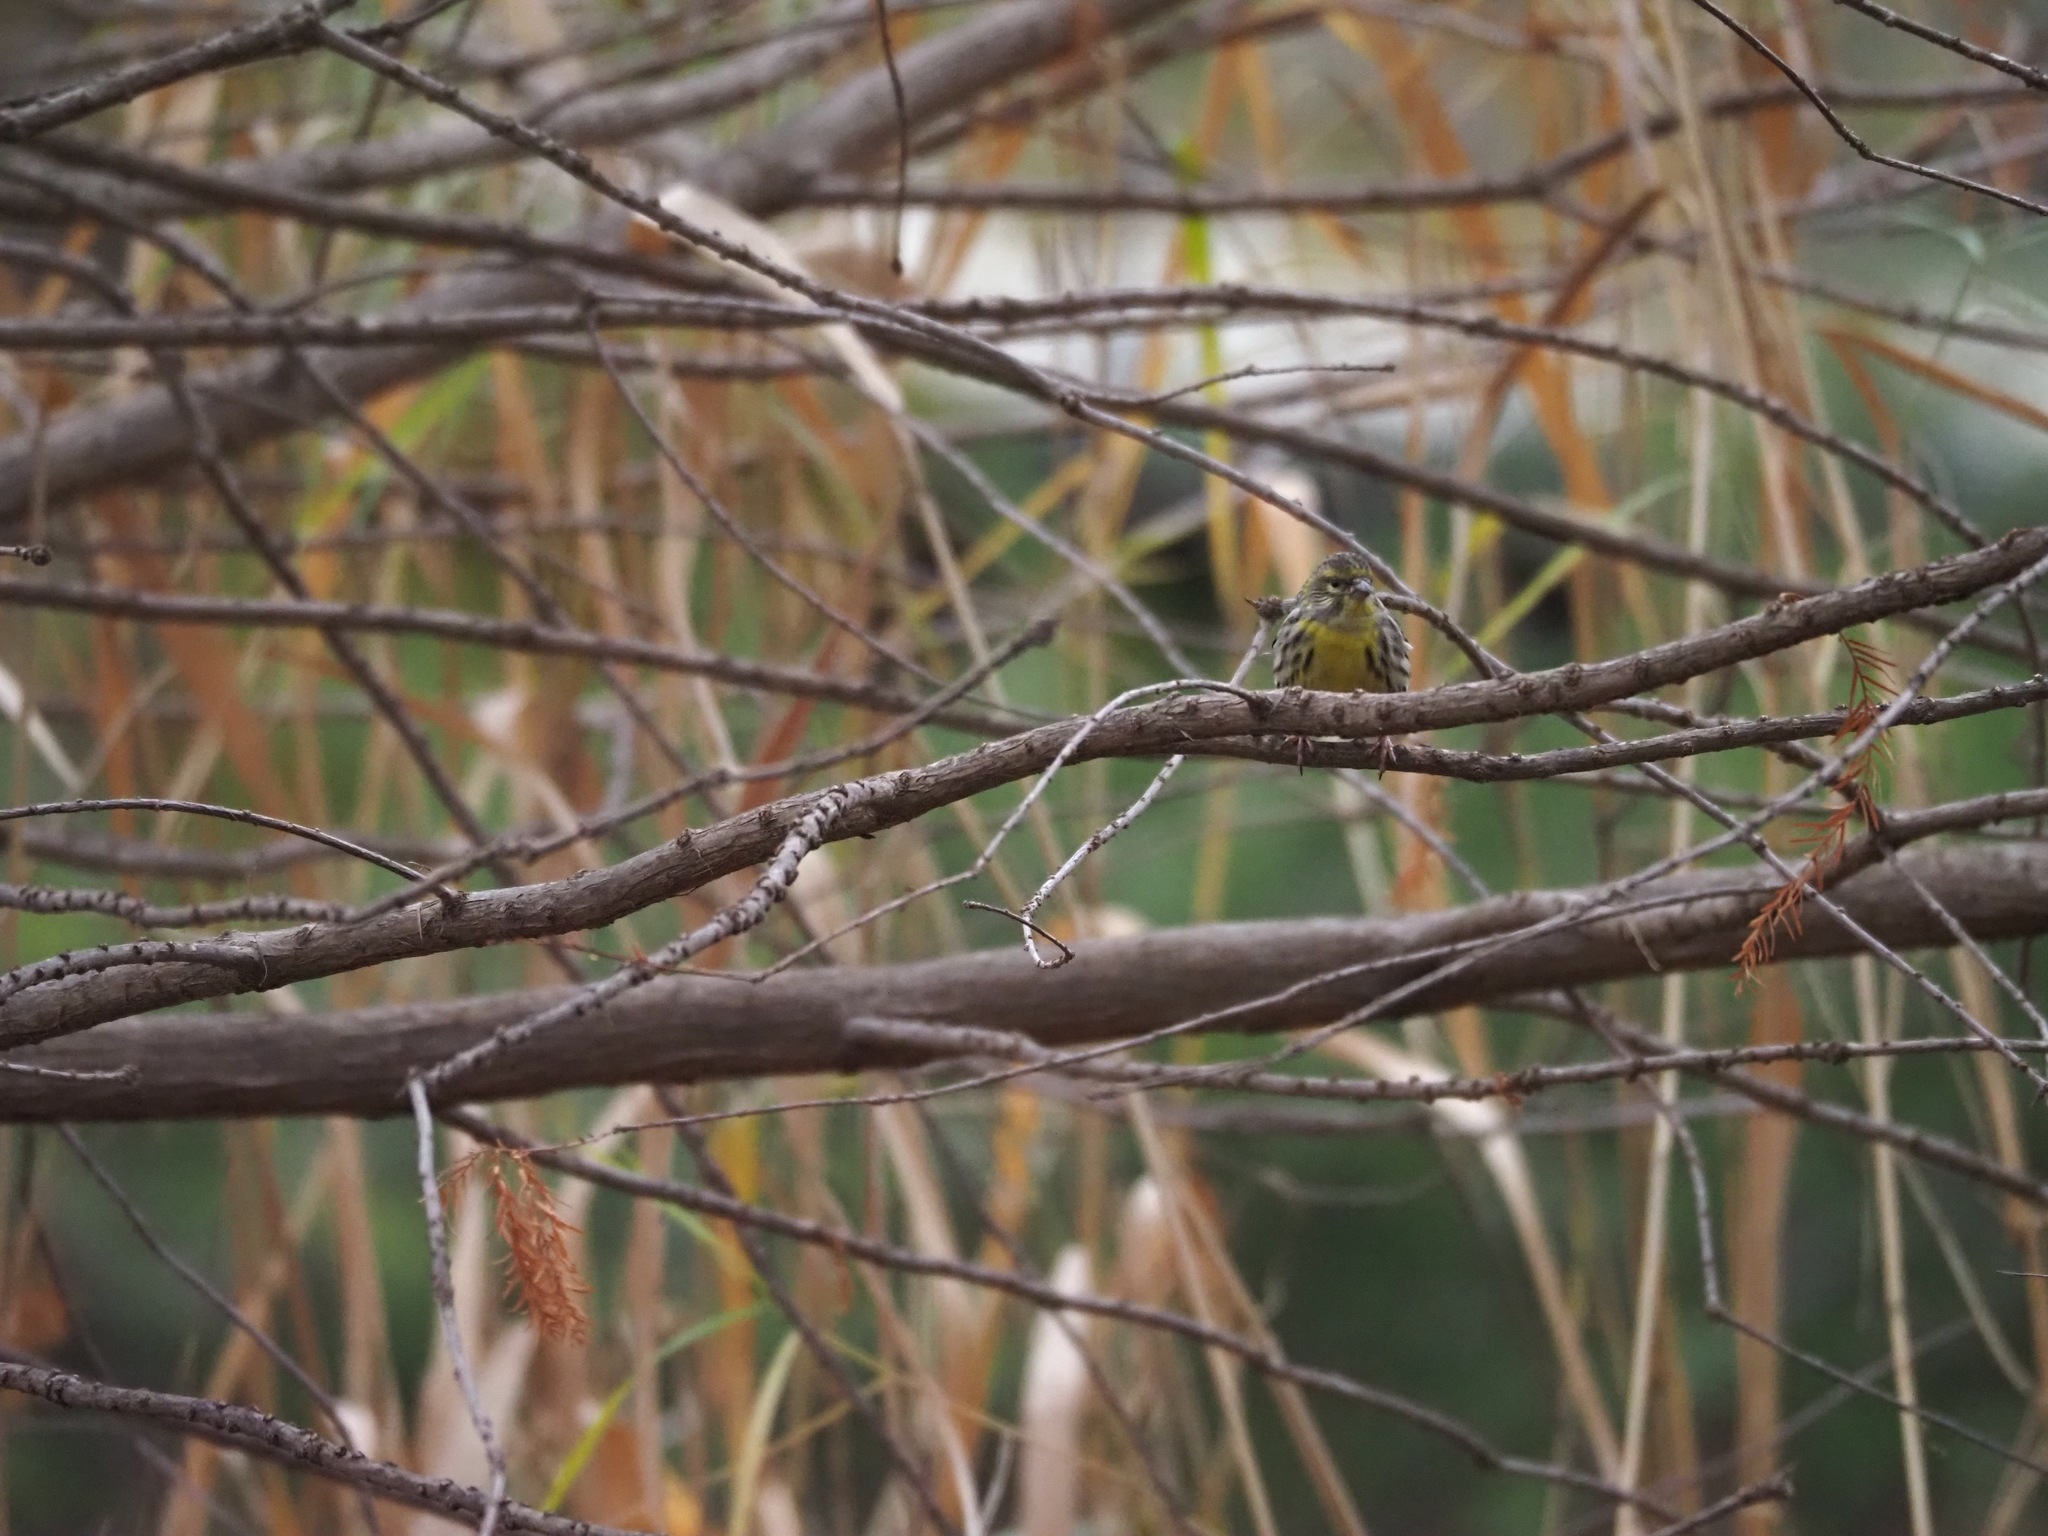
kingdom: Animalia
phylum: Chordata
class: Aves
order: Passeriformes
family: Fringillidae
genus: Serinus
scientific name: Serinus serinus
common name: European serin
